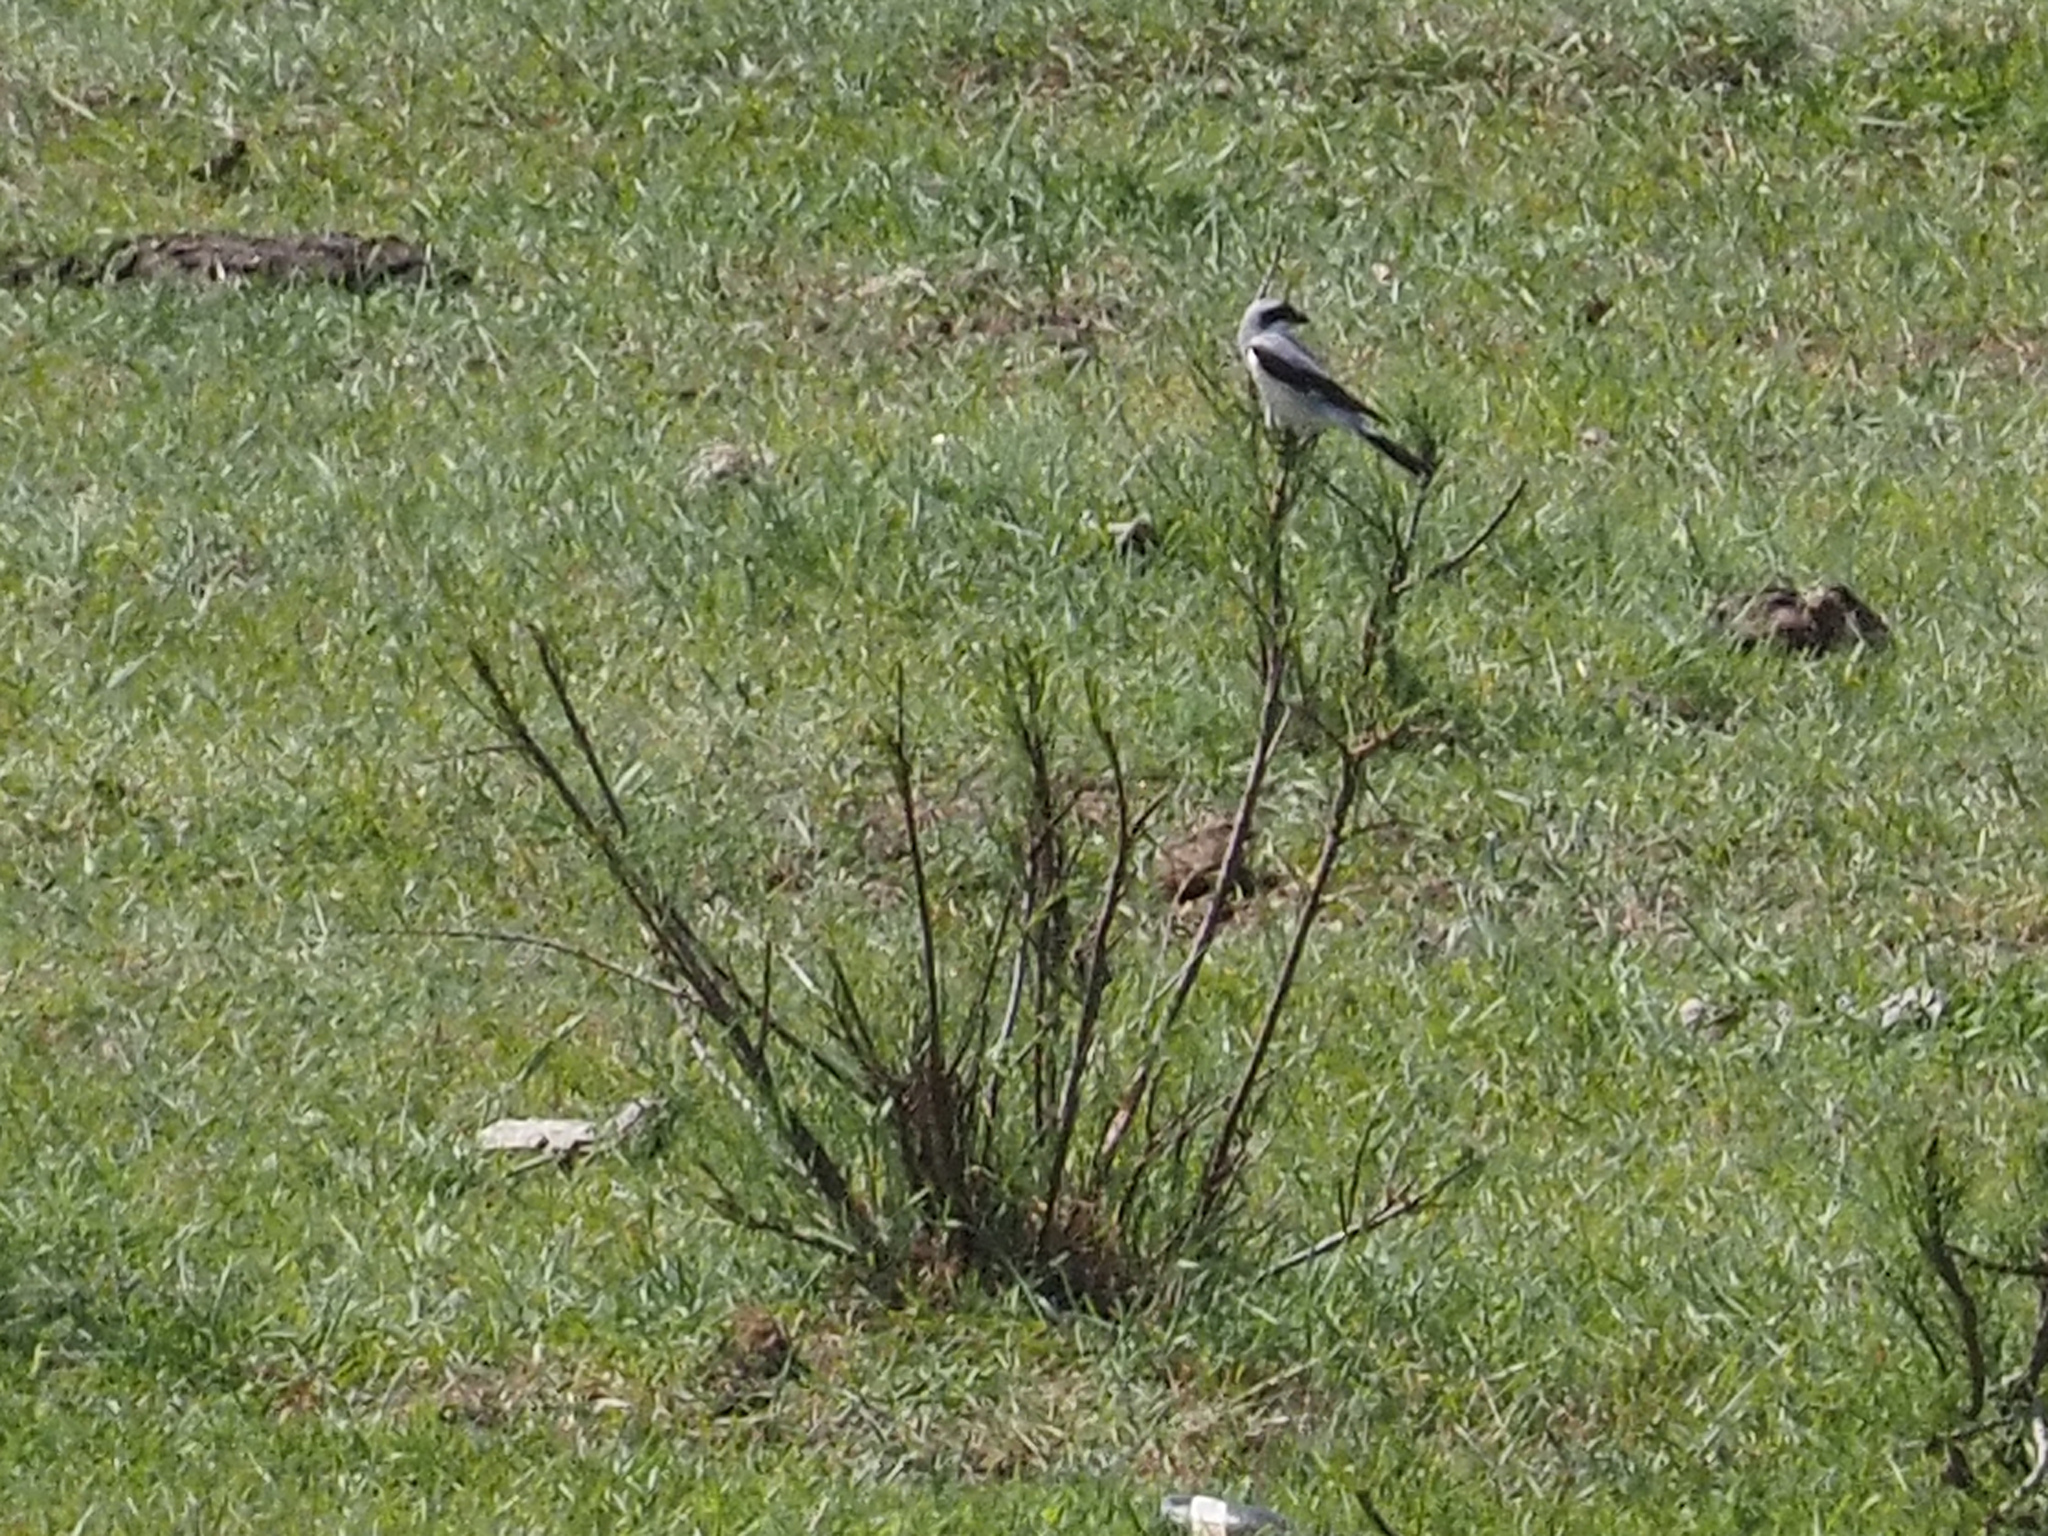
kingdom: Animalia
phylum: Chordata
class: Aves
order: Passeriformes
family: Laniidae
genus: Lanius
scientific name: Lanius minor
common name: Lesser grey shrike
